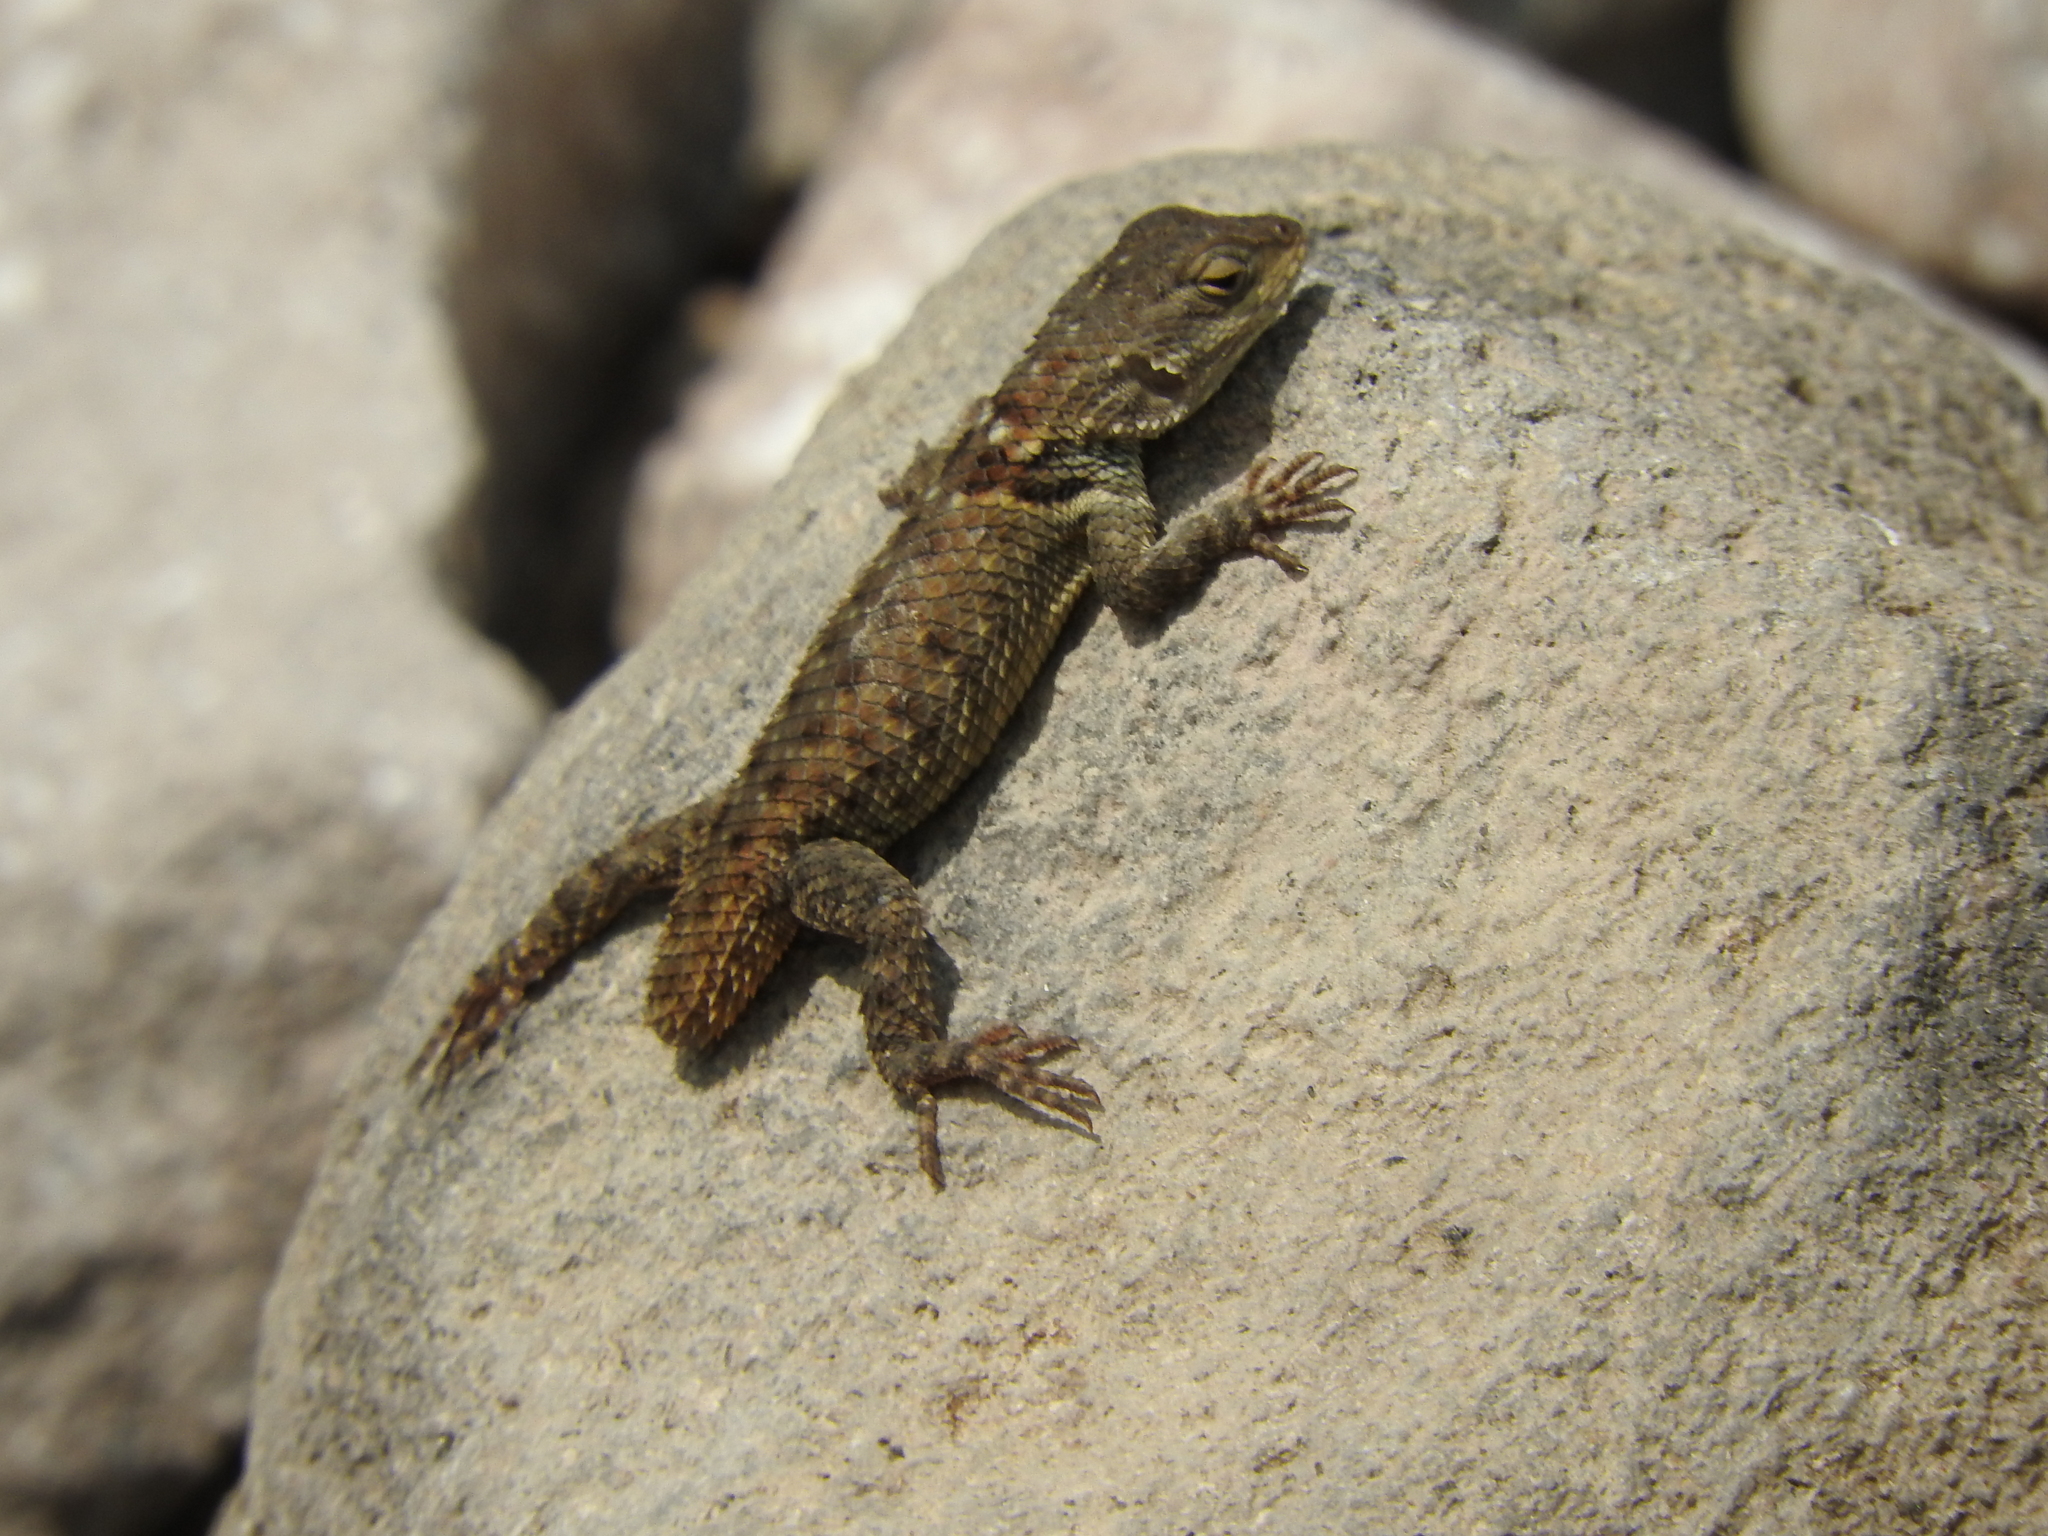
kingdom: Animalia
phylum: Chordata
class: Squamata
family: Phrynosomatidae
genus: Sceloporus
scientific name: Sceloporus torquatus
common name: Central plateau torquate lizard [melanogaster]
